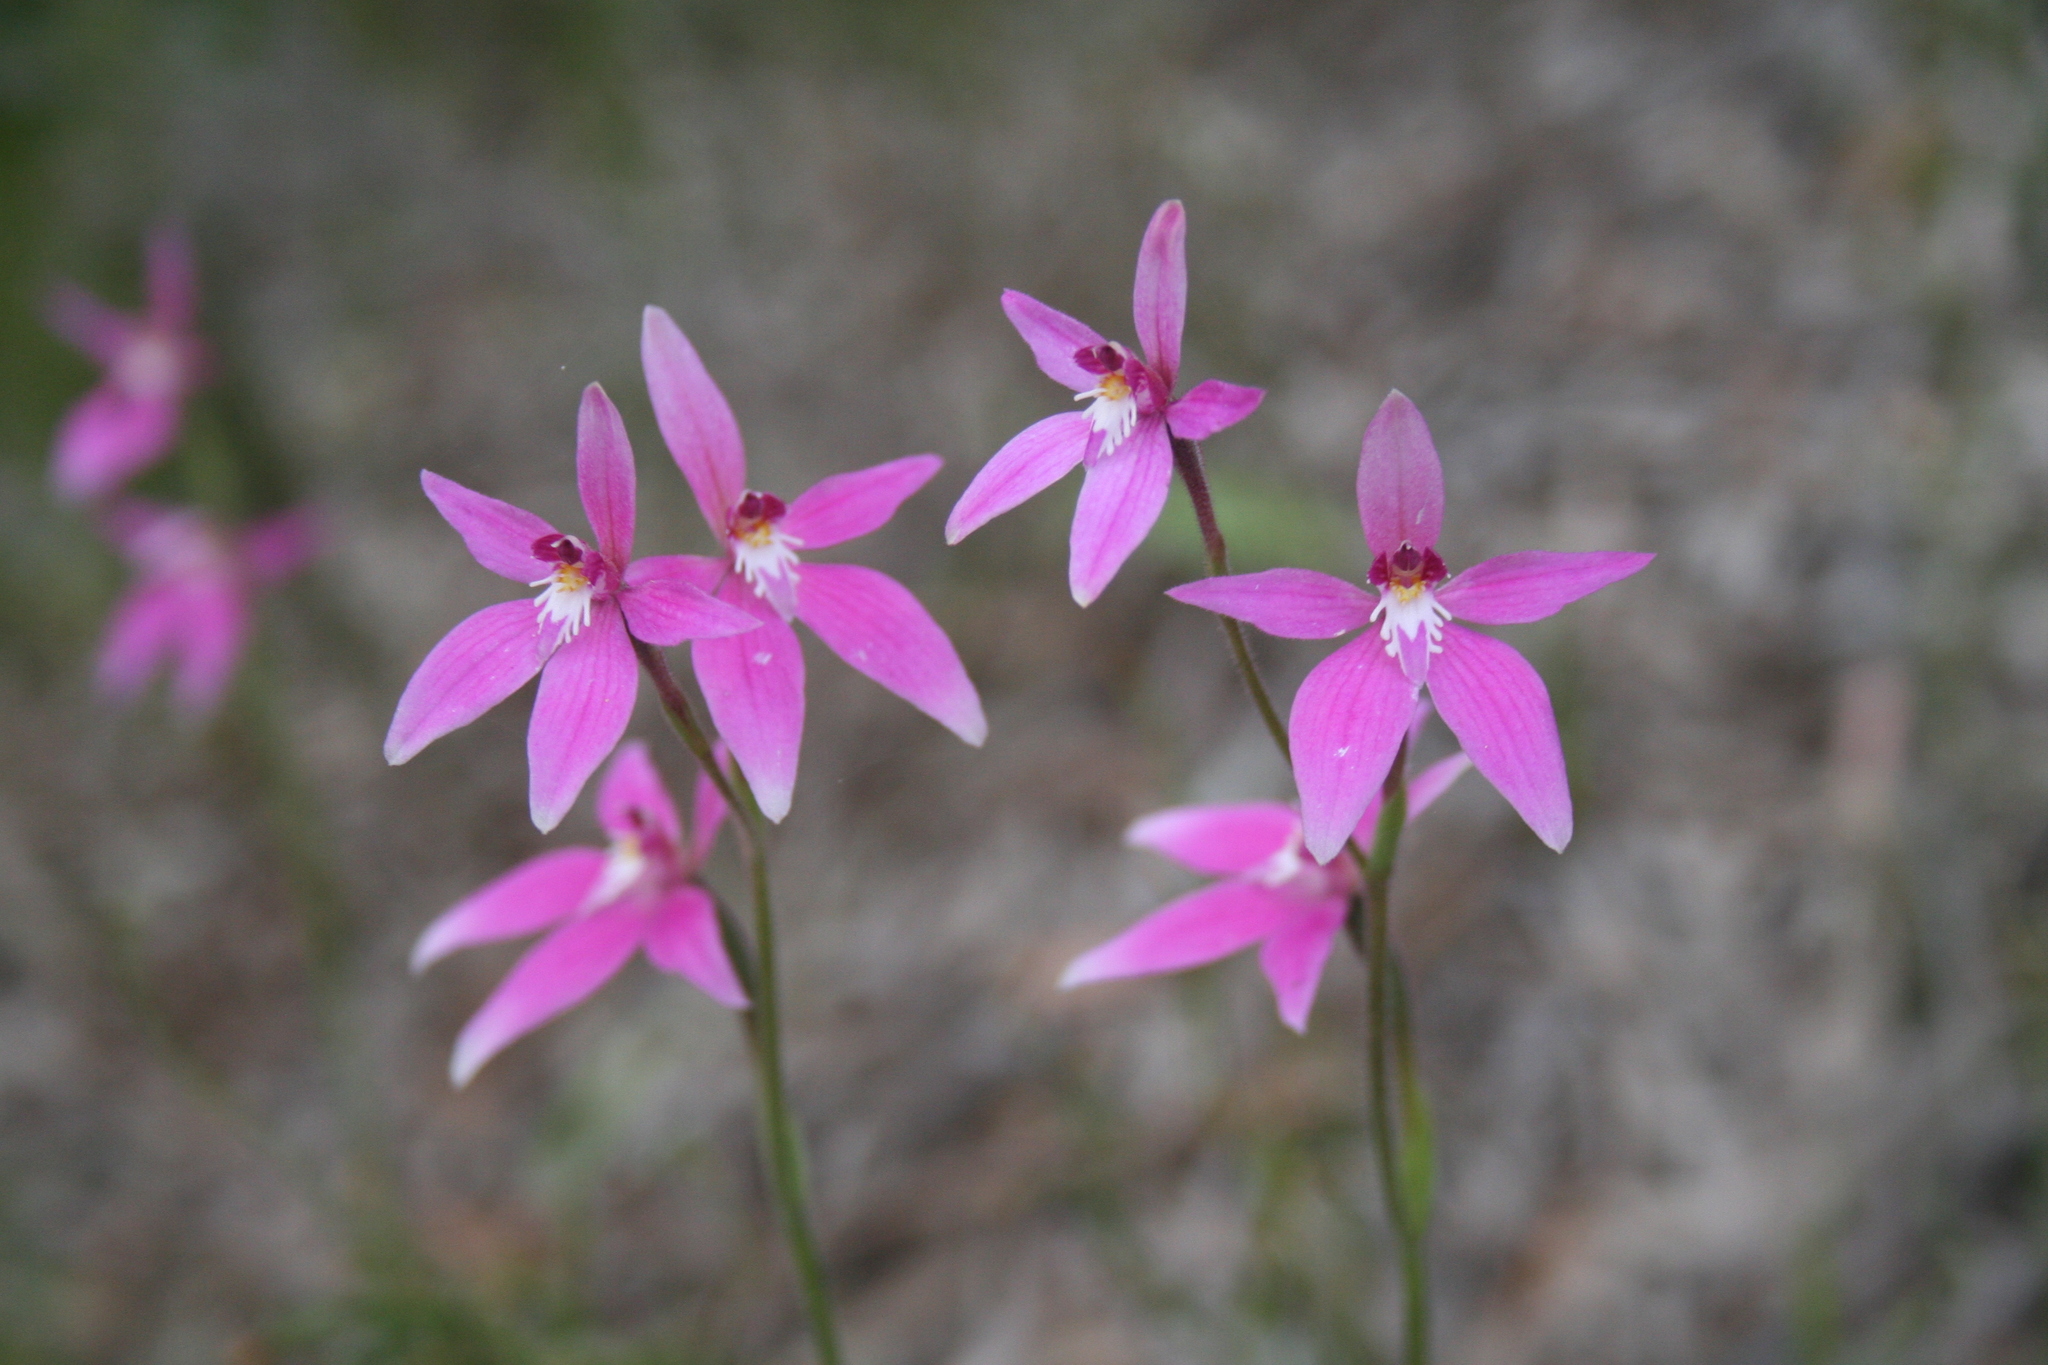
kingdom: Plantae
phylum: Tracheophyta
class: Liliopsida
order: Asparagales
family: Orchidaceae
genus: Caladenia
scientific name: Caladenia reptans
